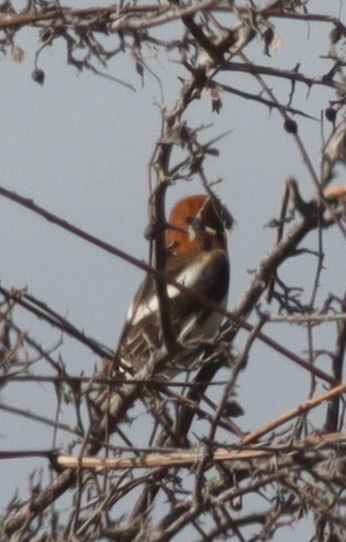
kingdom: Animalia
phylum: Chordata
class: Aves
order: Passeriformes
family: Laniidae
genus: Lanius
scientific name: Lanius senator
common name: Woodchat shrike
